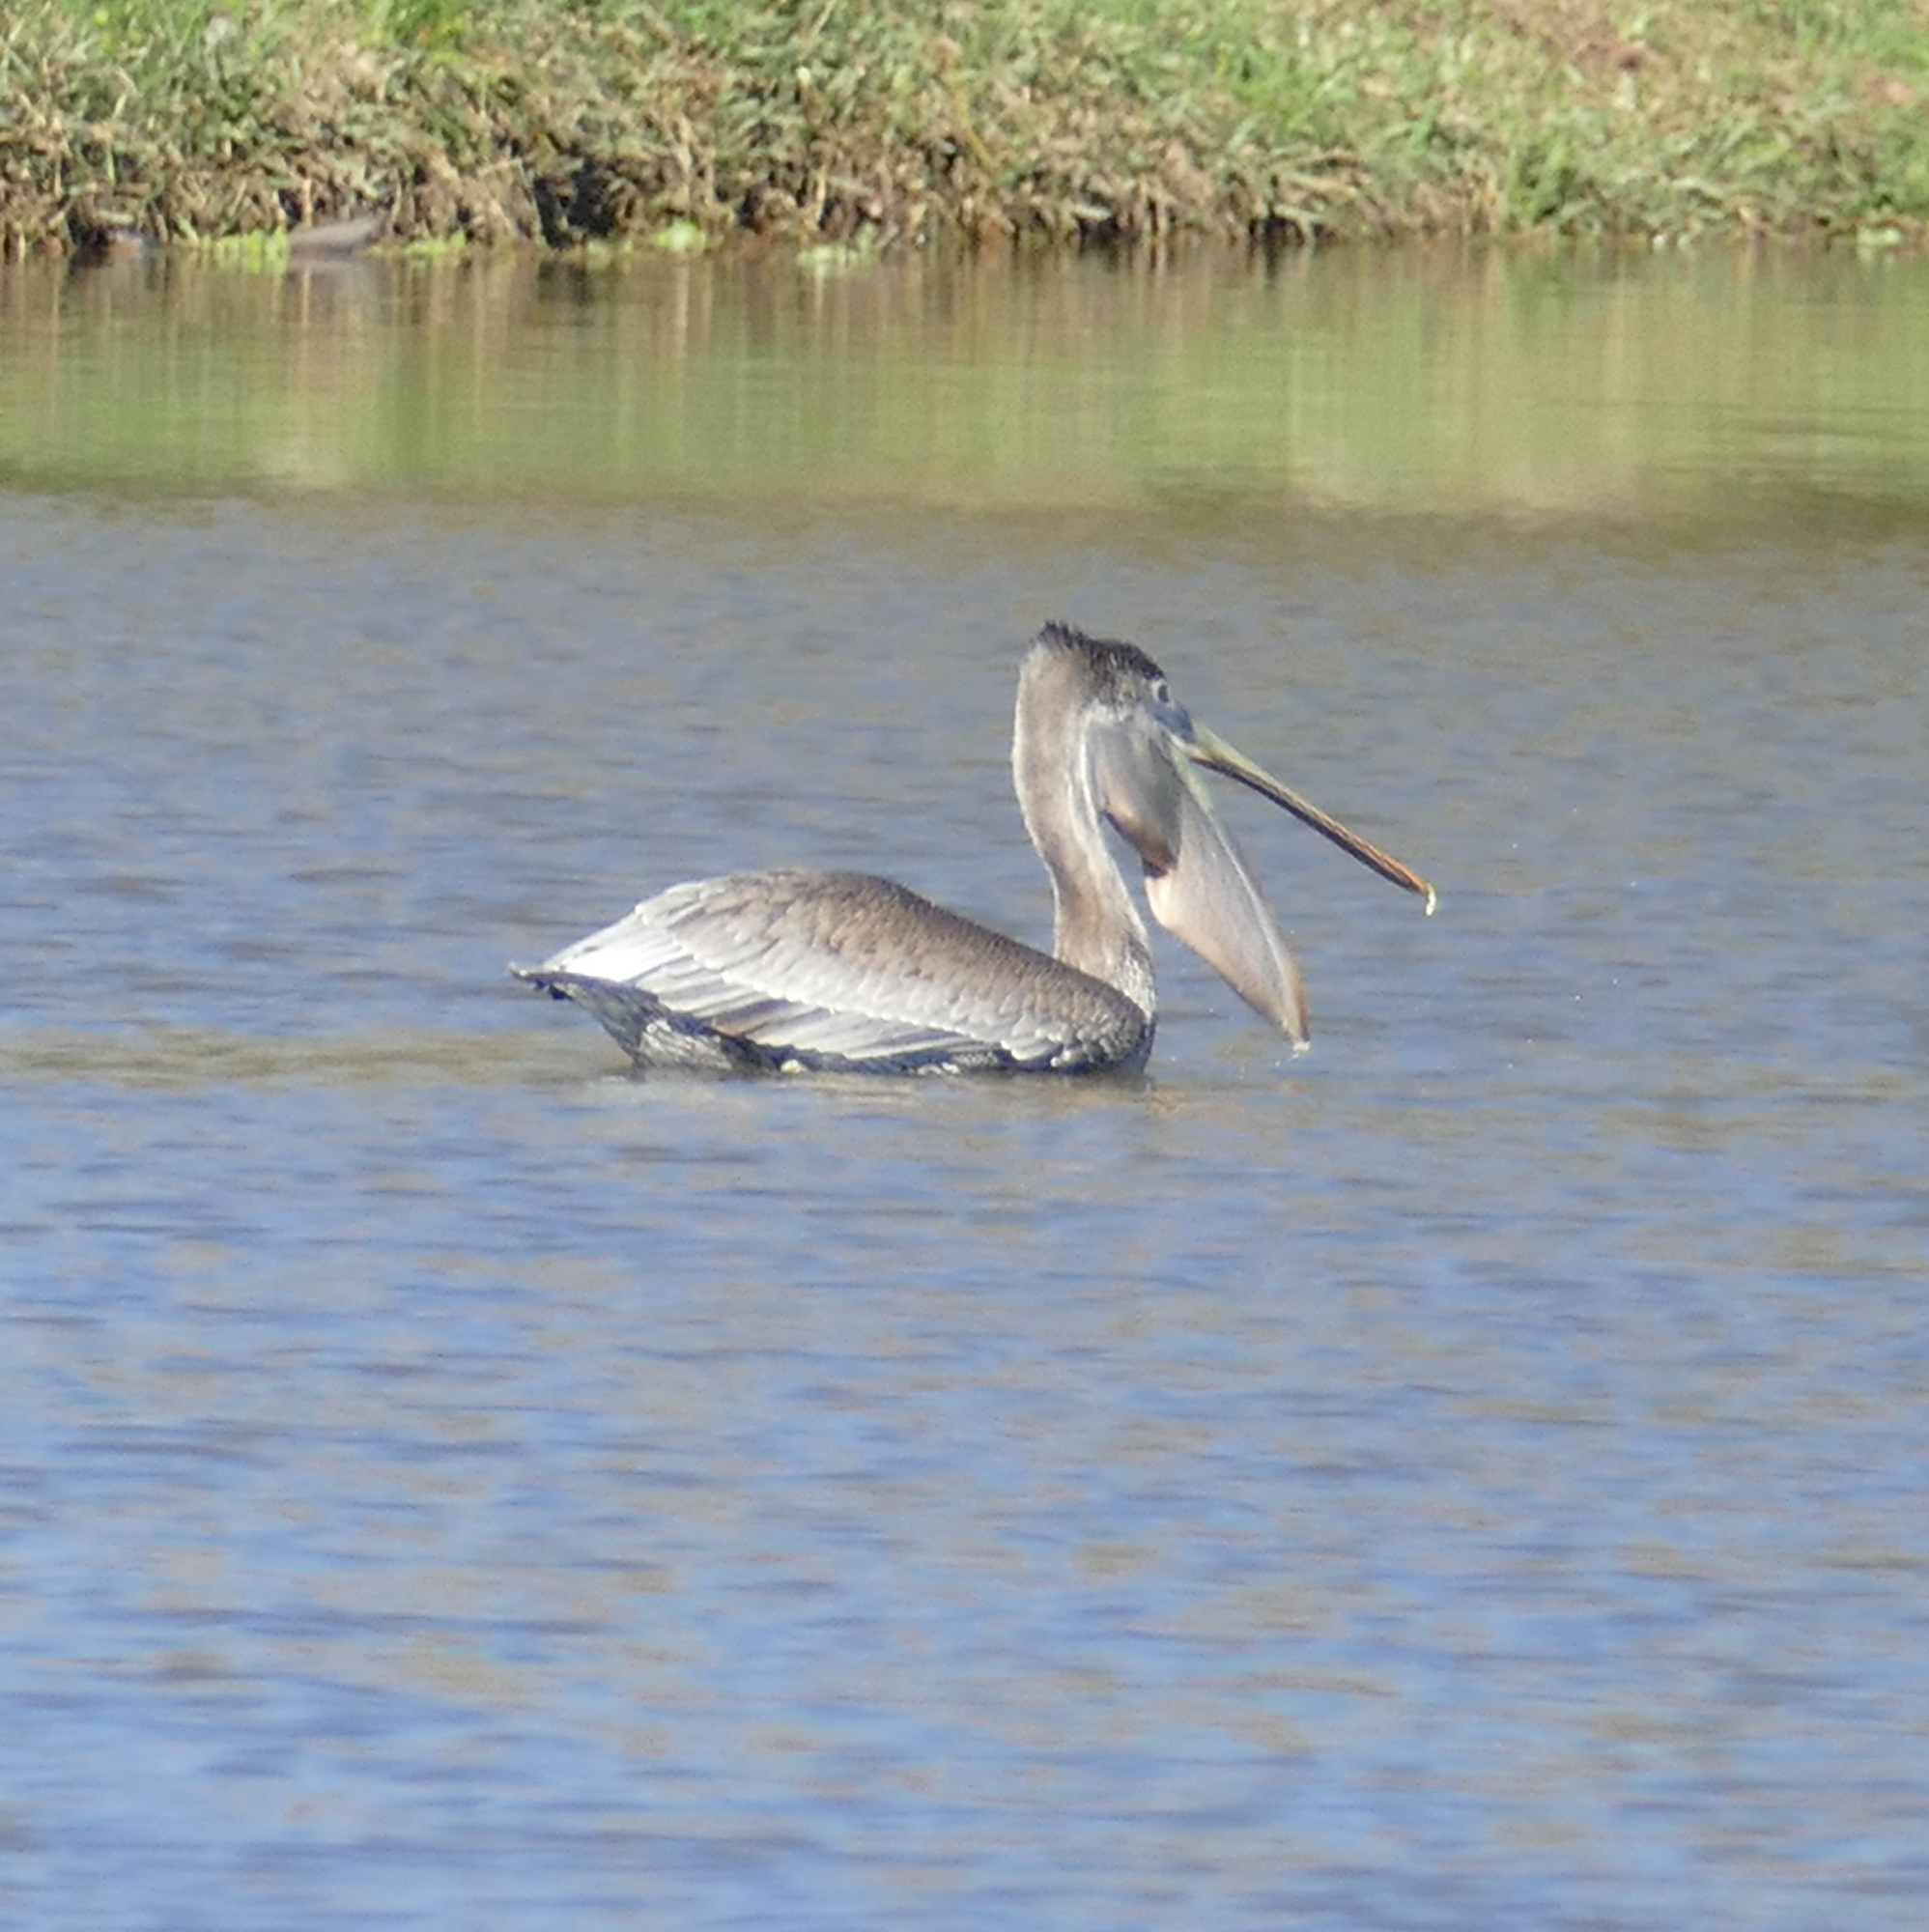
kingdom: Animalia
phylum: Chordata
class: Aves
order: Pelecaniformes
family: Pelecanidae
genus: Pelecanus
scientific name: Pelecanus occidentalis
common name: Brown pelican
